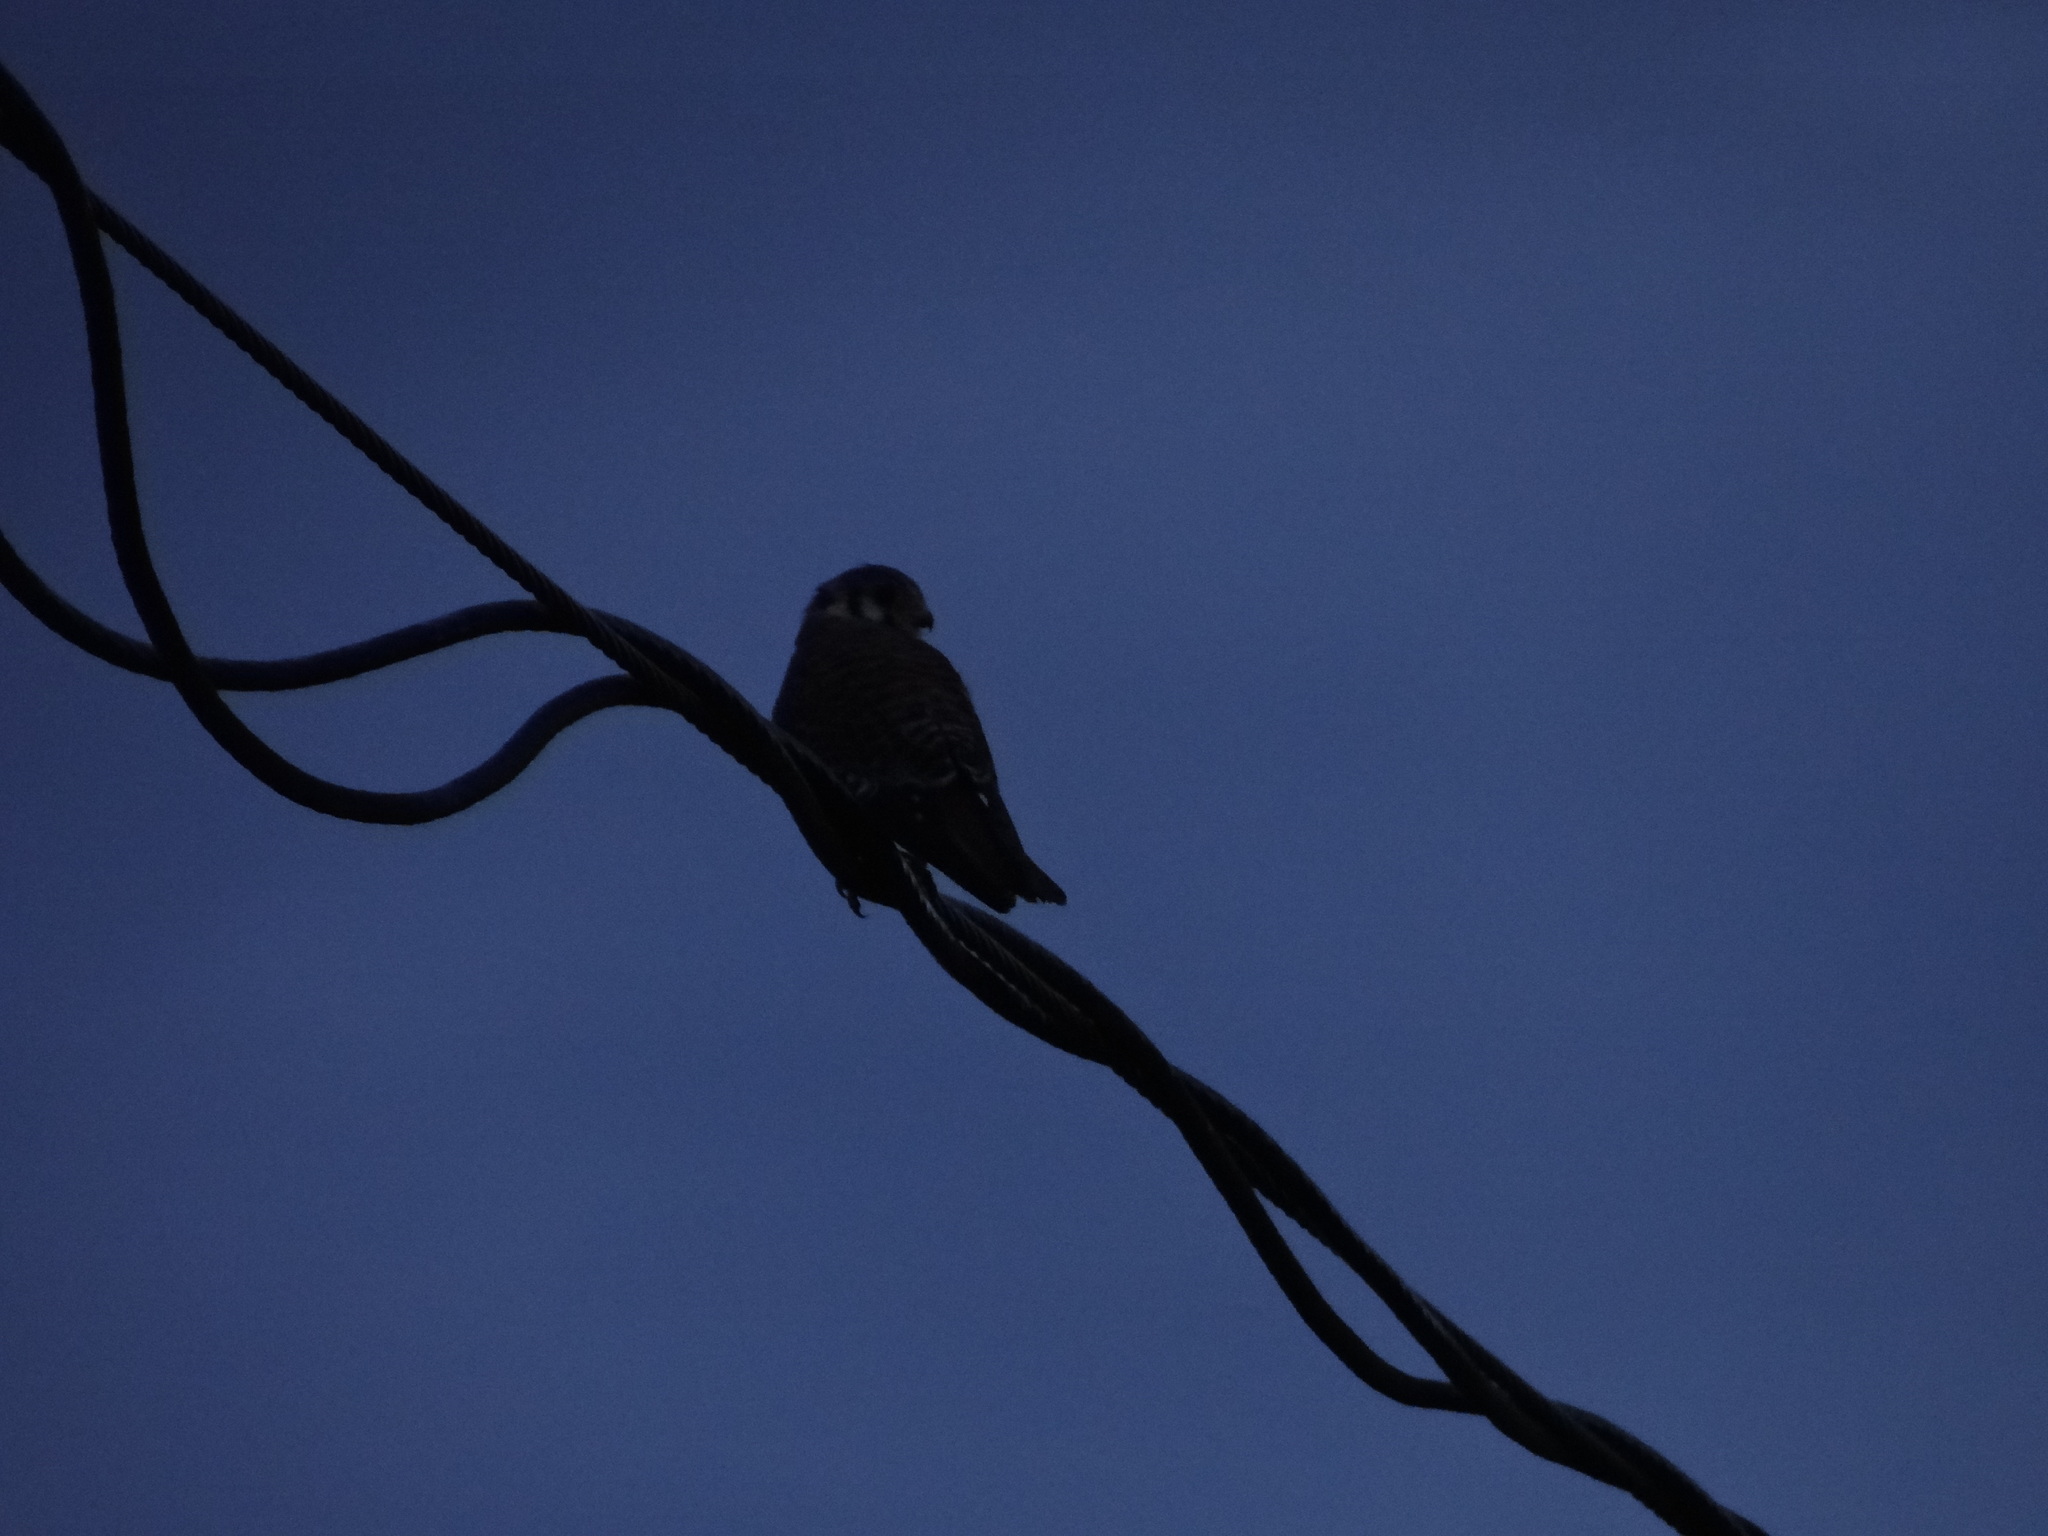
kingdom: Animalia
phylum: Chordata
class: Aves
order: Falconiformes
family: Falconidae
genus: Falco
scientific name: Falco sparverius
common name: American kestrel
